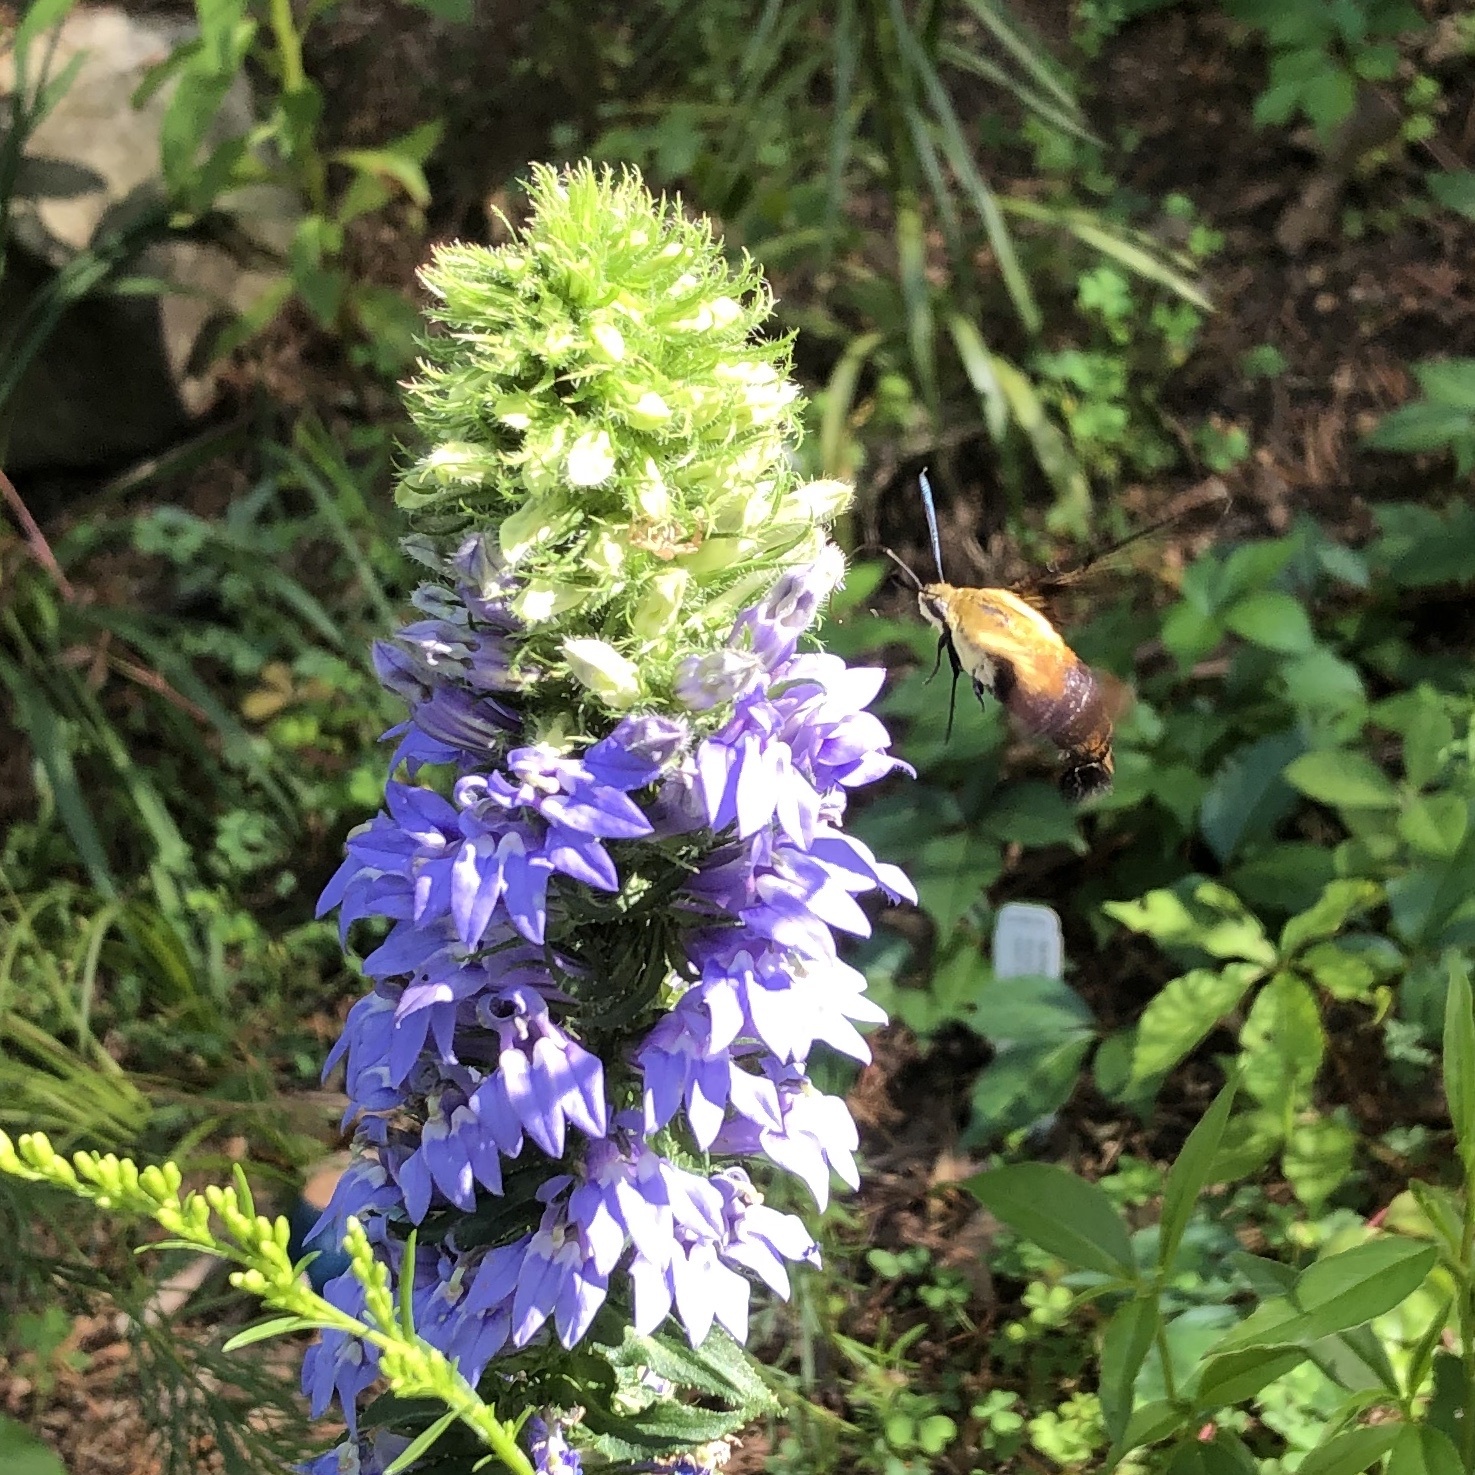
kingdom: Animalia
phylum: Arthropoda
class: Insecta
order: Lepidoptera
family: Sphingidae
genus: Hemaris
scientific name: Hemaris diffinis
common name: Bumblebee moth
